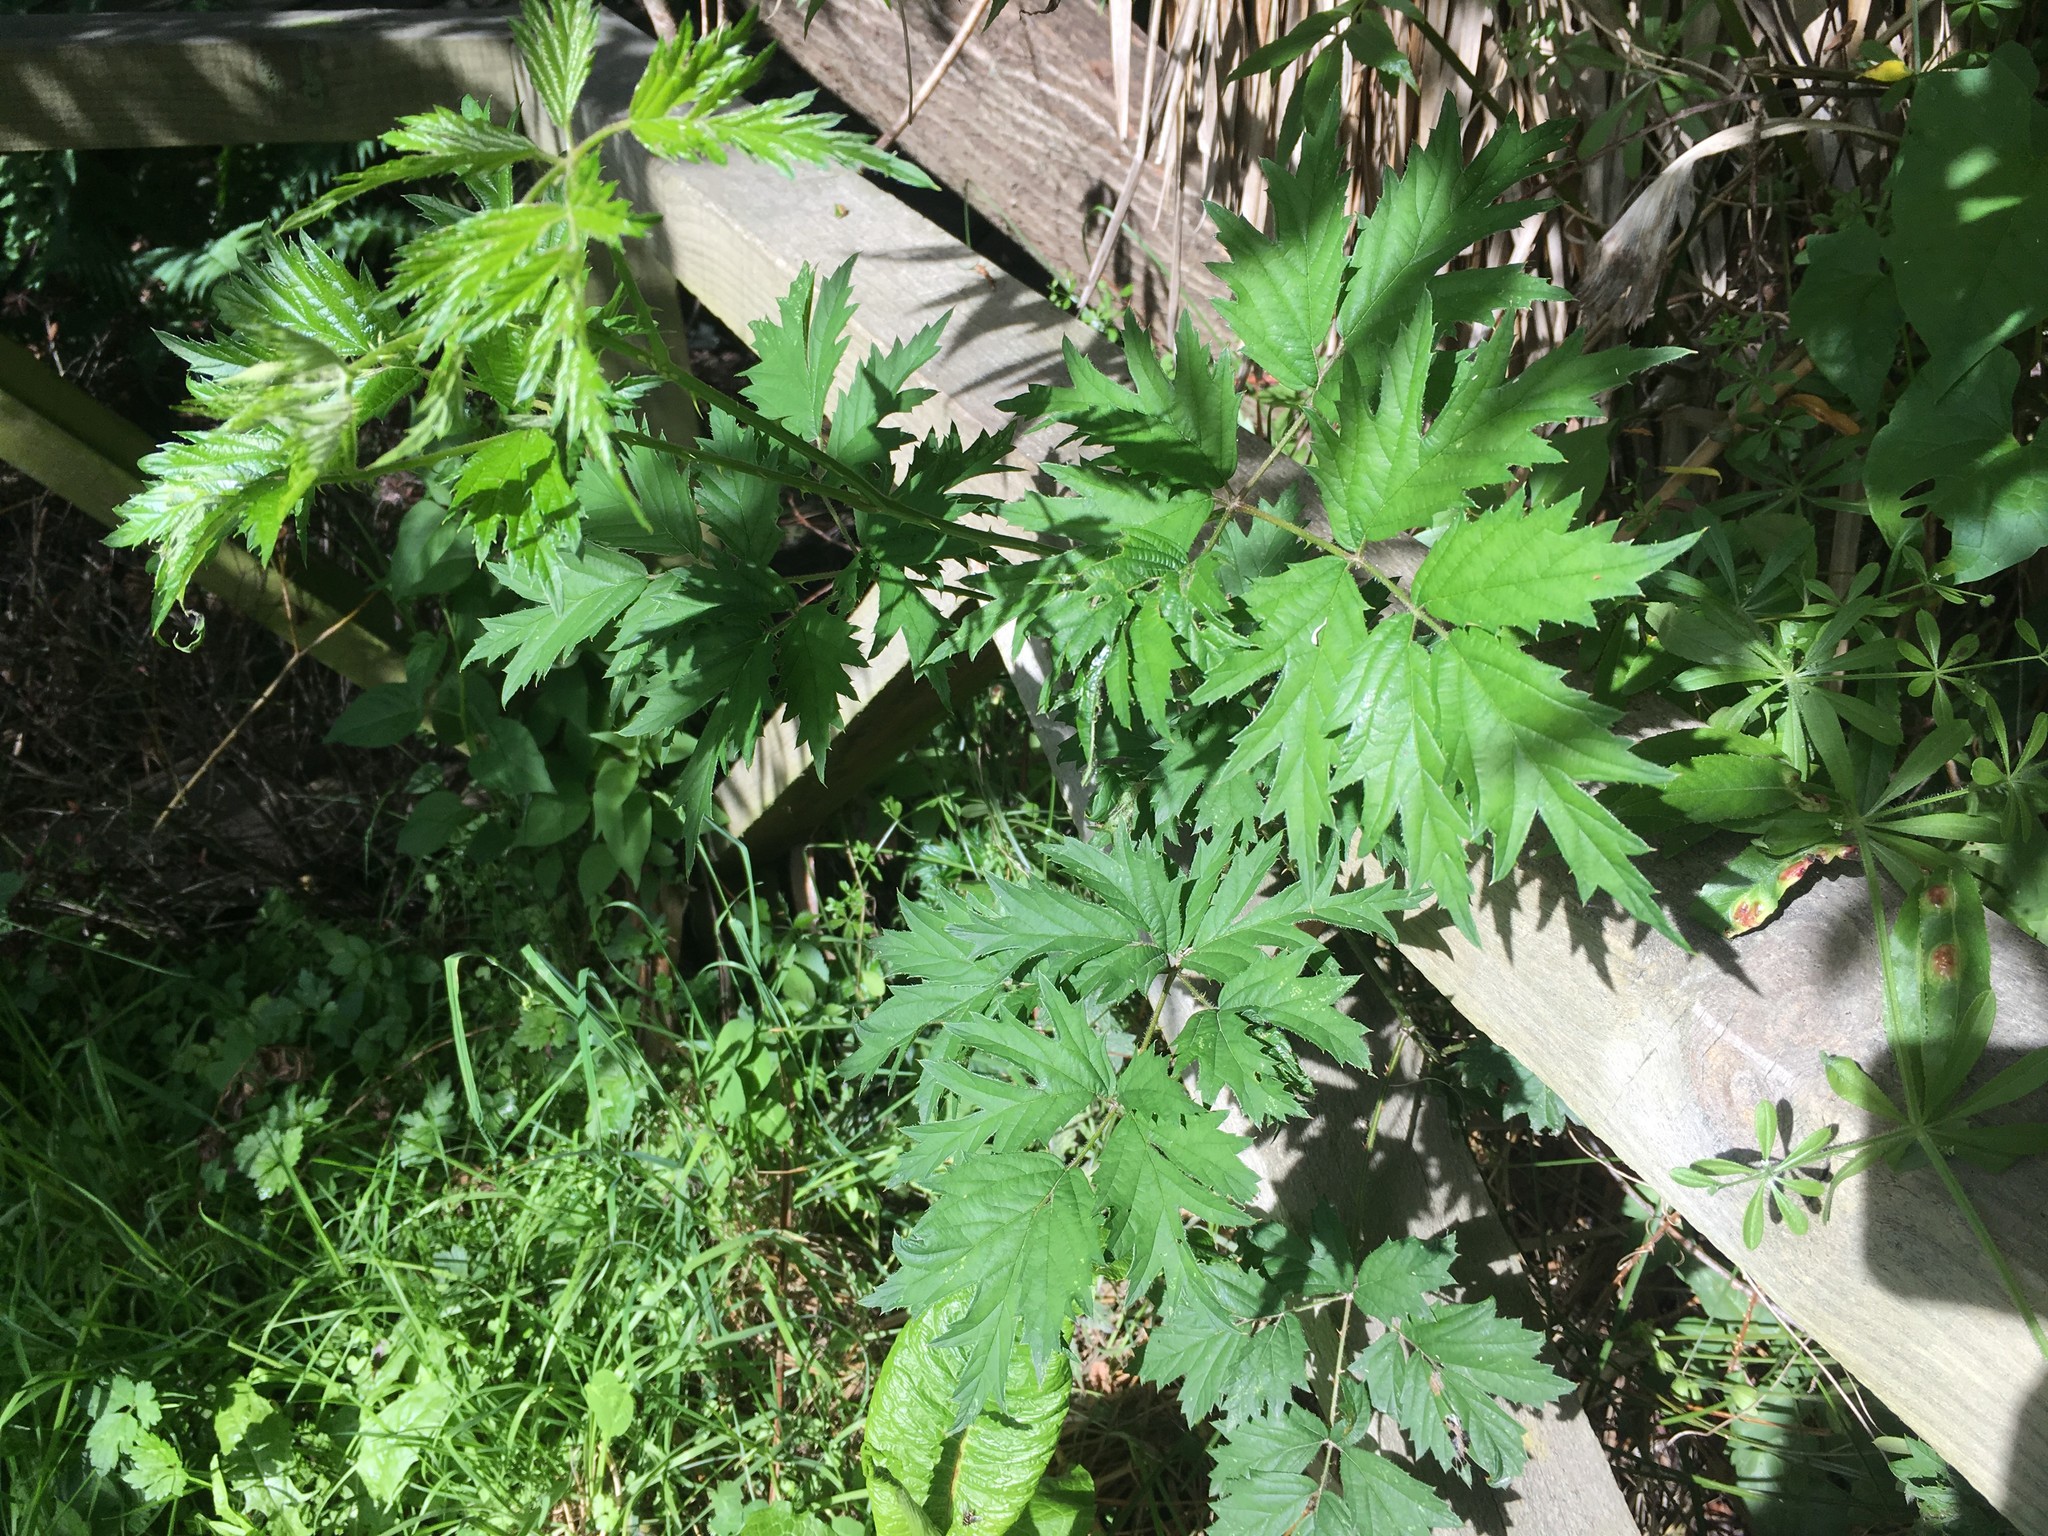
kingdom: Plantae
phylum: Tracheophyta
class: Magnoliopsida
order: Rosales
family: Rosaceae
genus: Rubus
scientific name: Rubus laciniatus
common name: Evergreen blackberry
